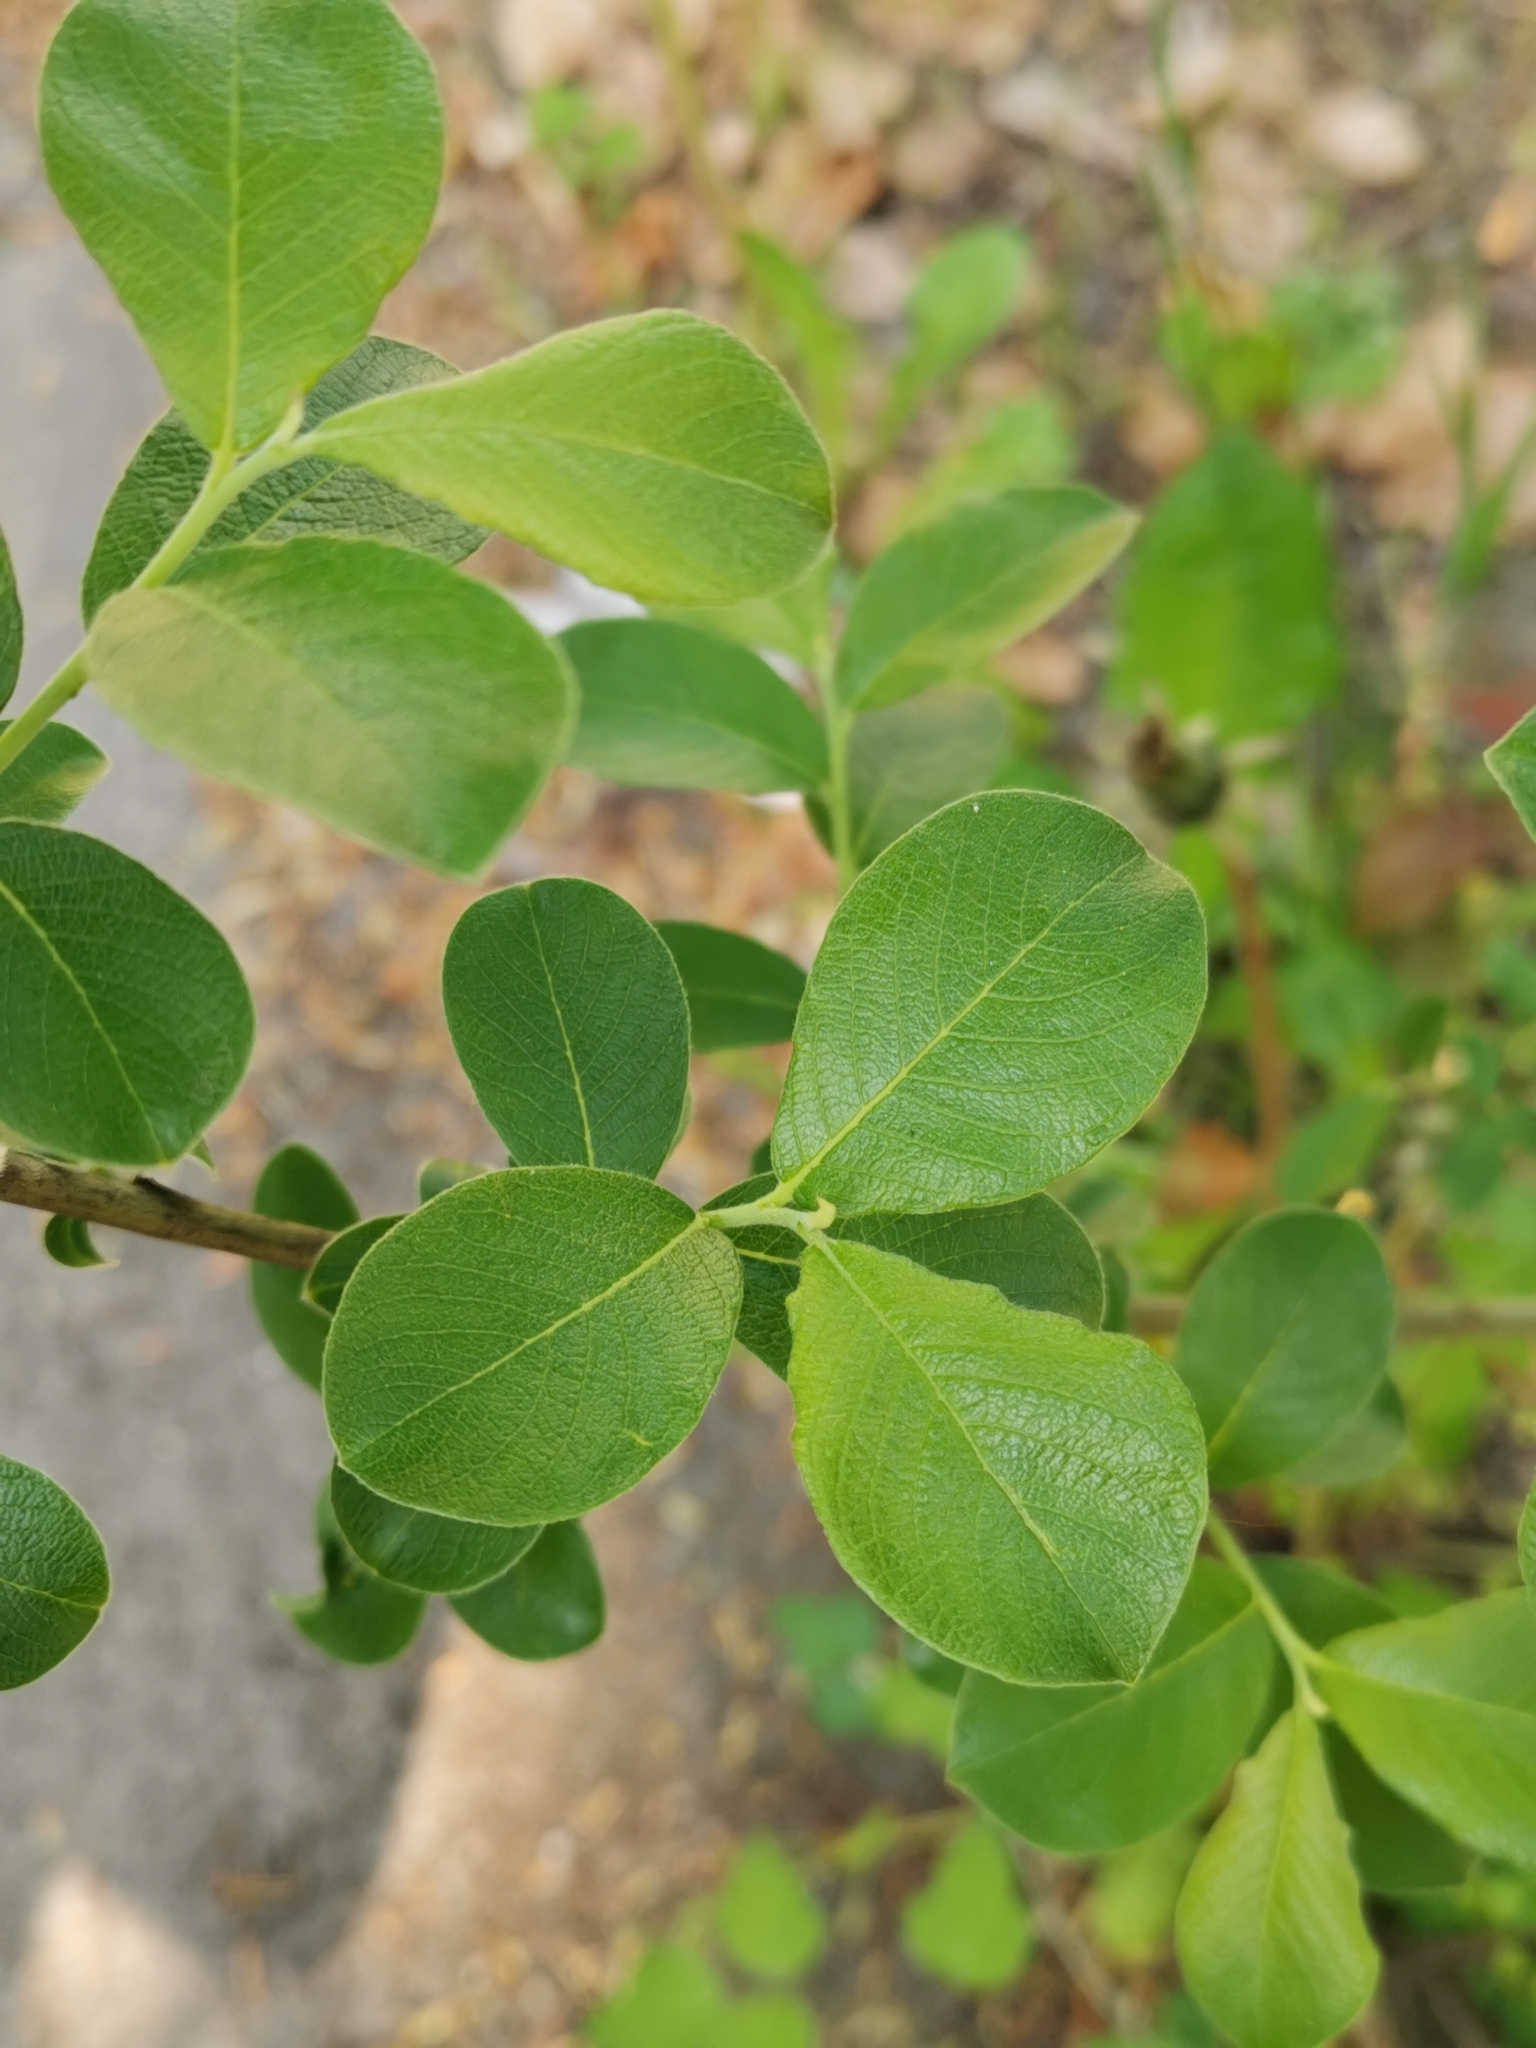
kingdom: Plantae
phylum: Tracheophyta
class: Magnoliopsida
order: Malpighiales
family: Salicaceae
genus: Salix
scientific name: Salix caprea
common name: Goat willow
